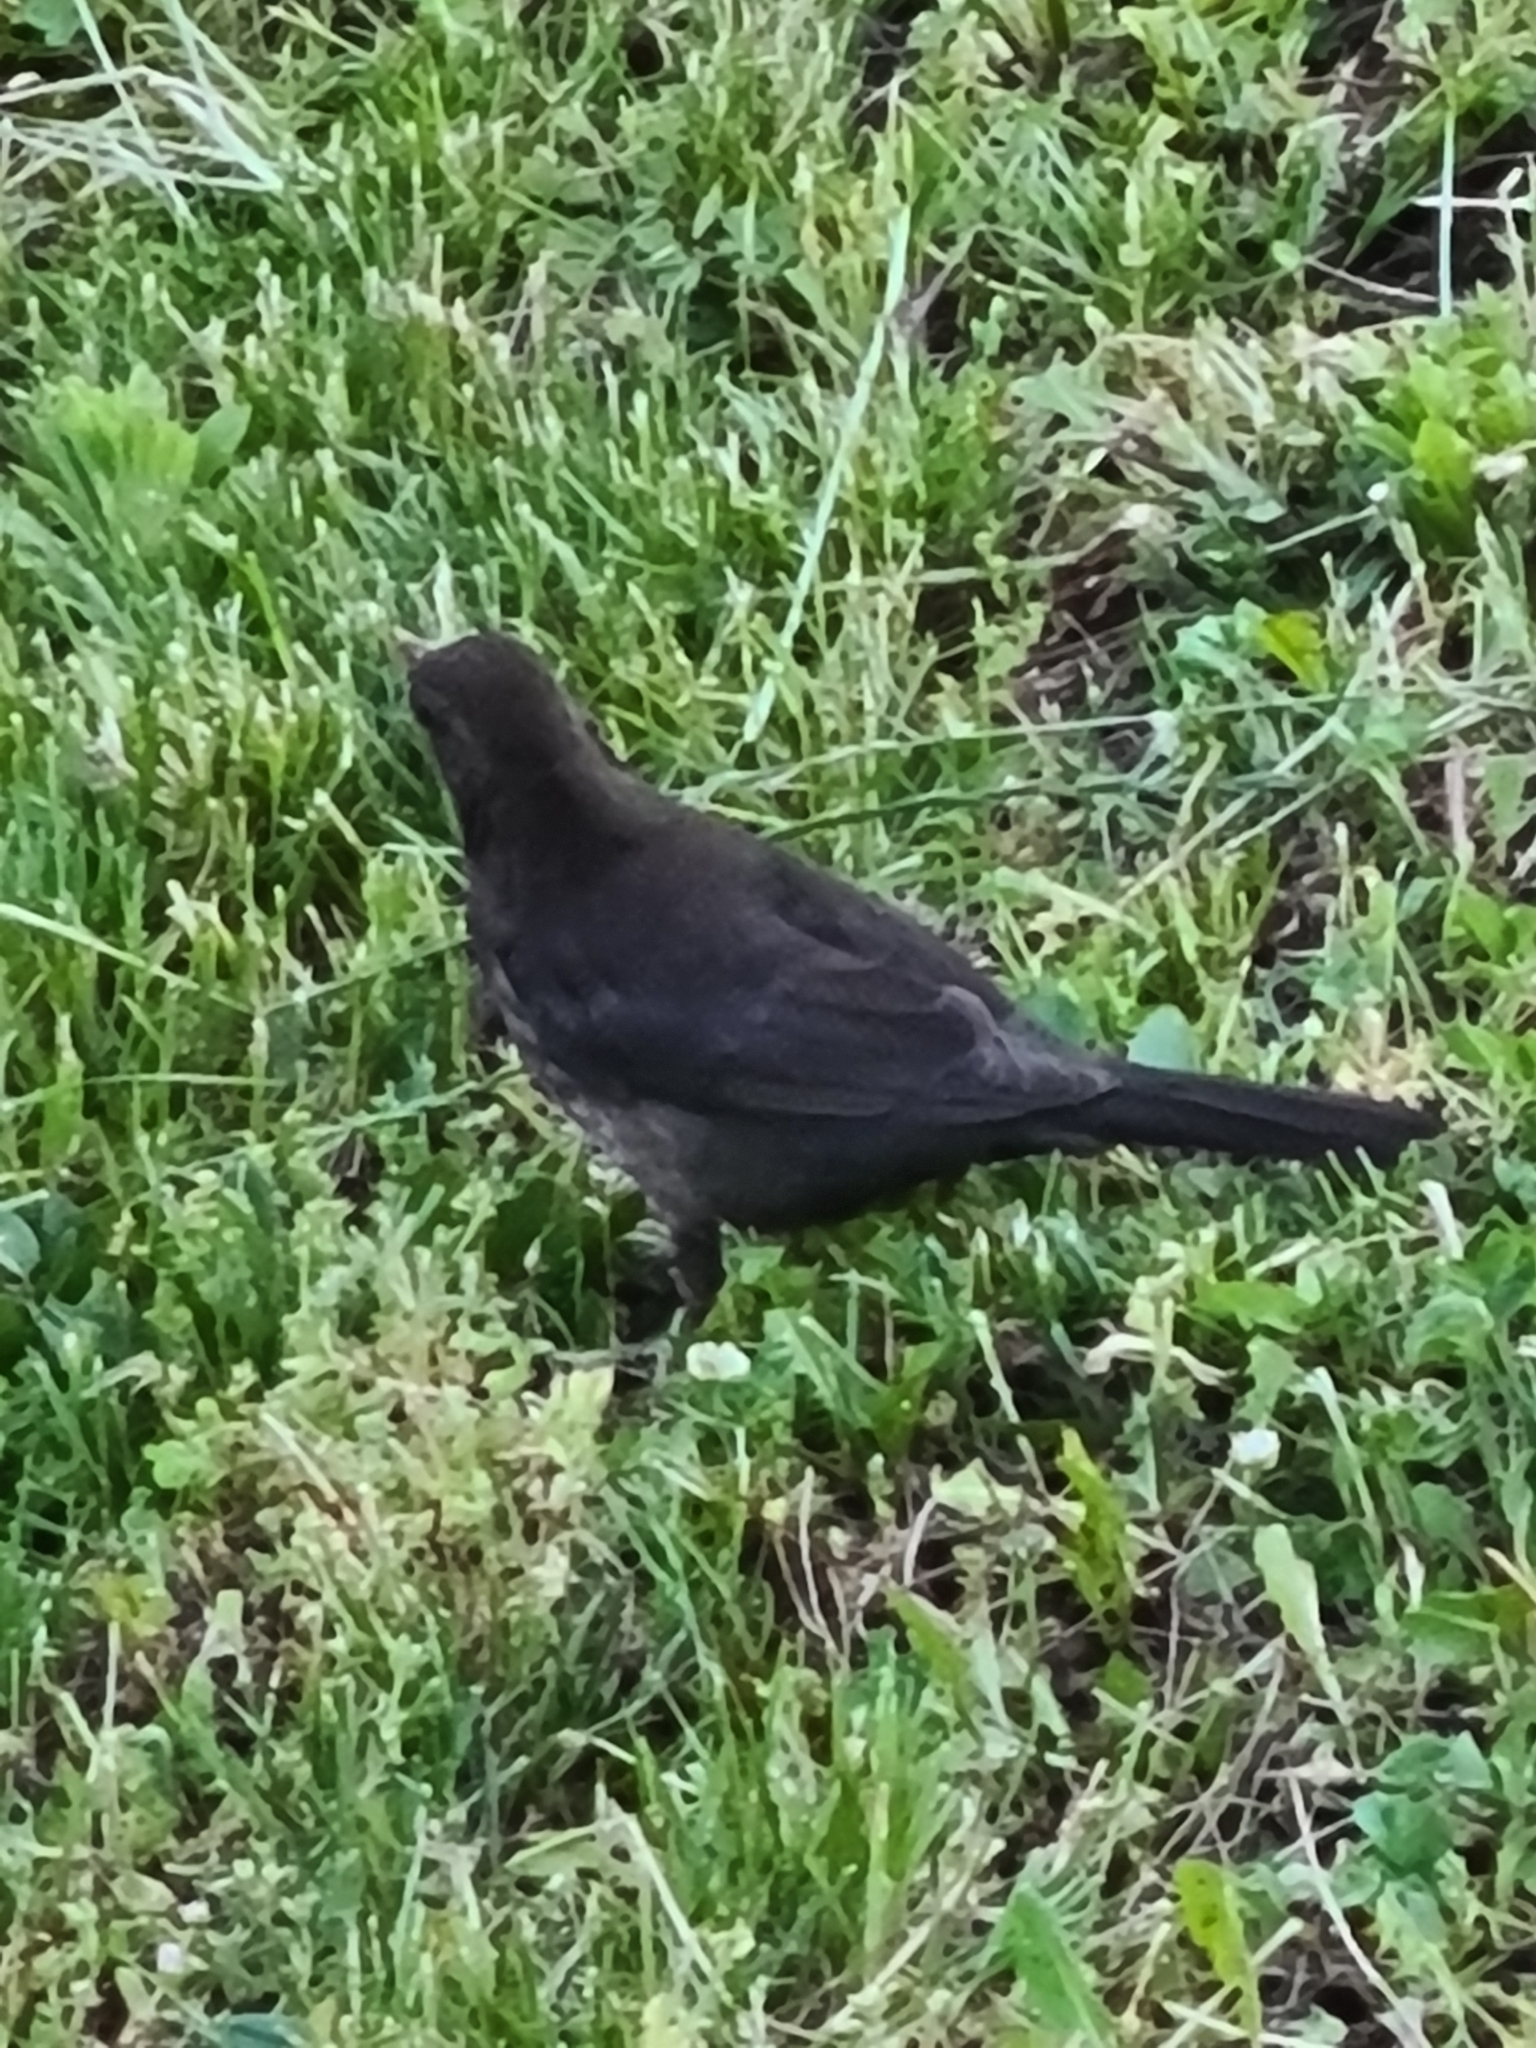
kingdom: Animalia
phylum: Chordata
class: Aves
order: Passeriformes
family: Turdidae
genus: Turdus
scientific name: Turdus merula
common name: Common blackbird
